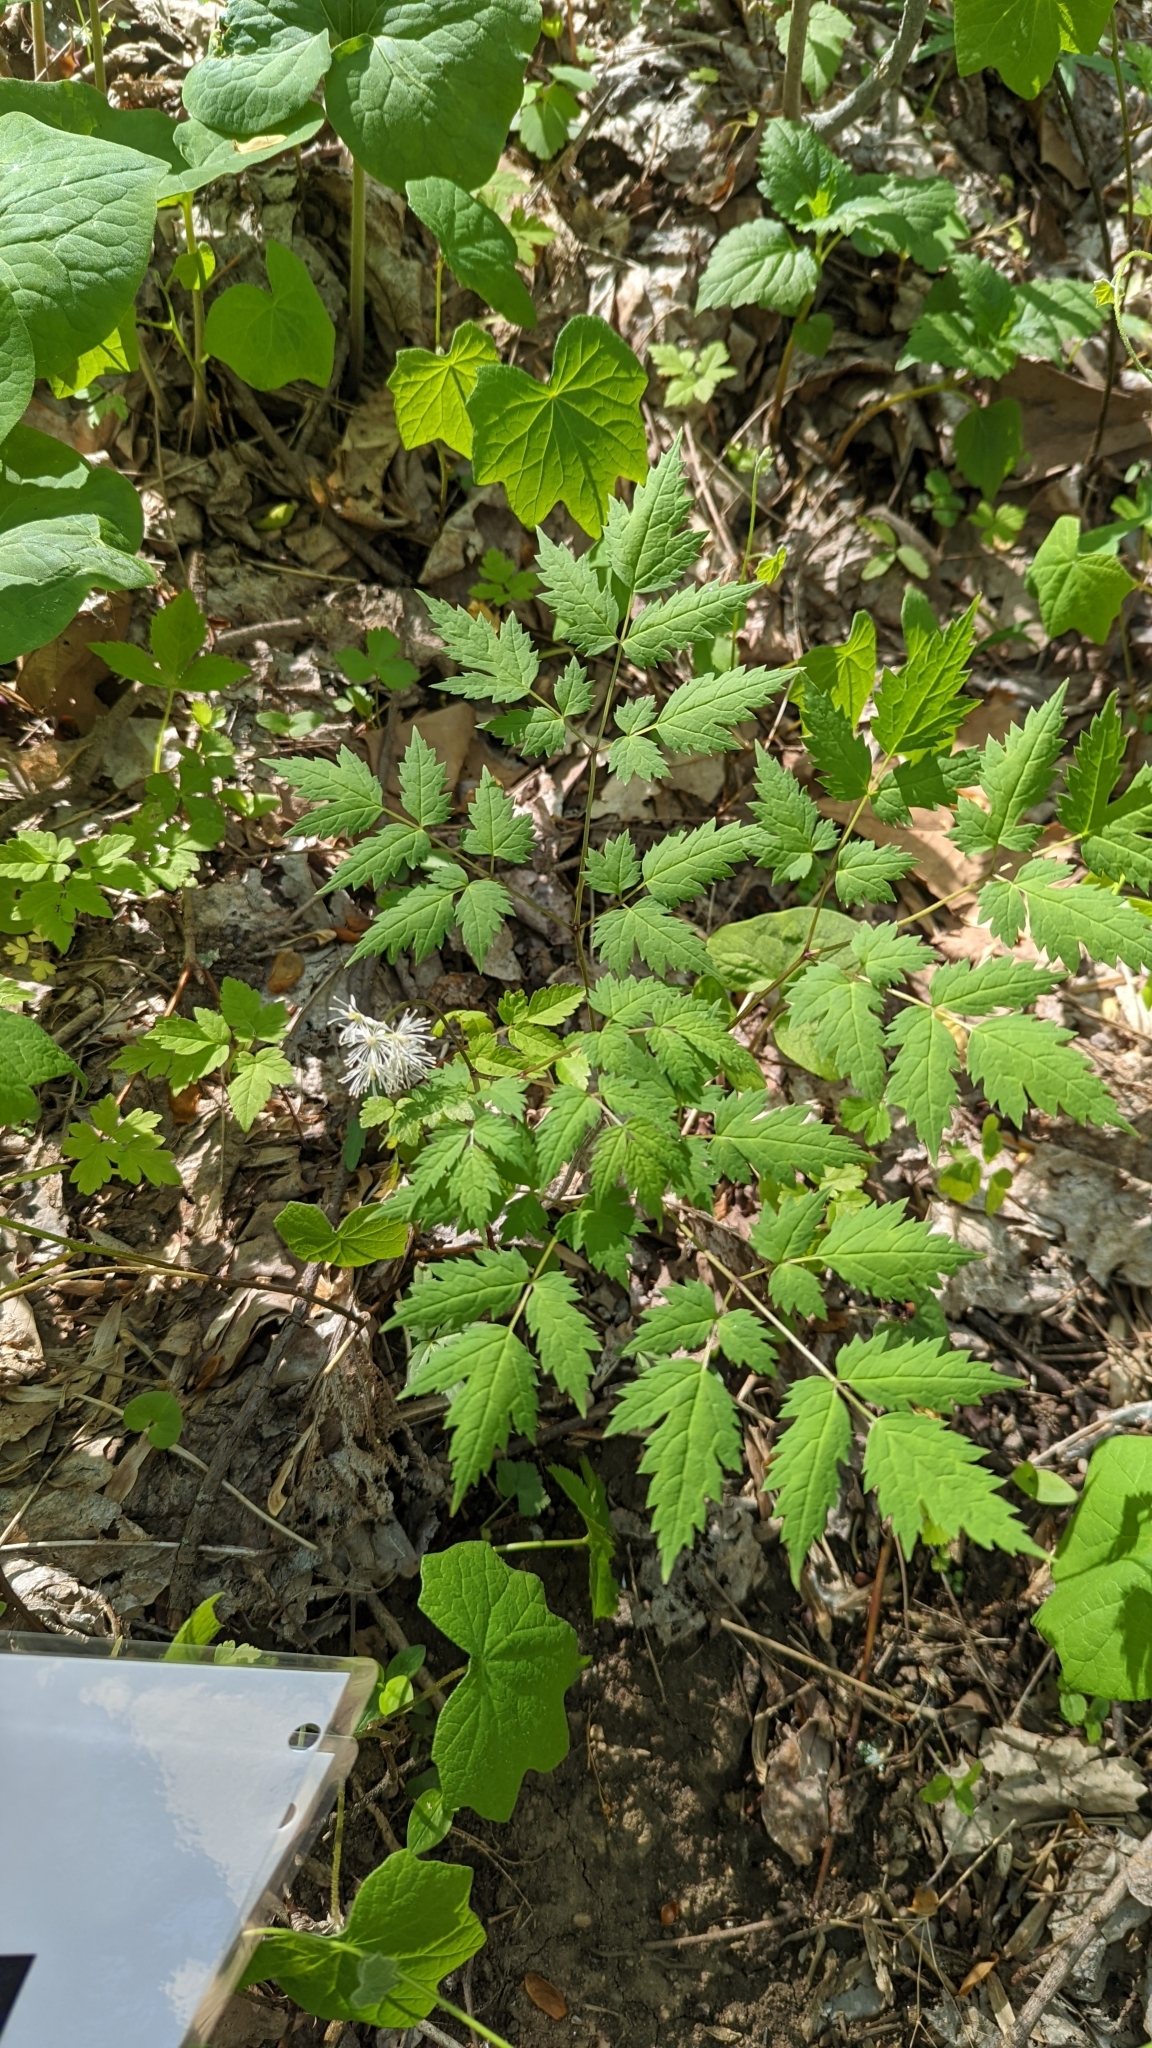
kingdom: Plantae
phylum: Tracheophyta
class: Magnoliopsida
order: Ranunculales
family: Ranunculaceae
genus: Actaea
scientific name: Actaea pachypoda
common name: Doll's-eyes
